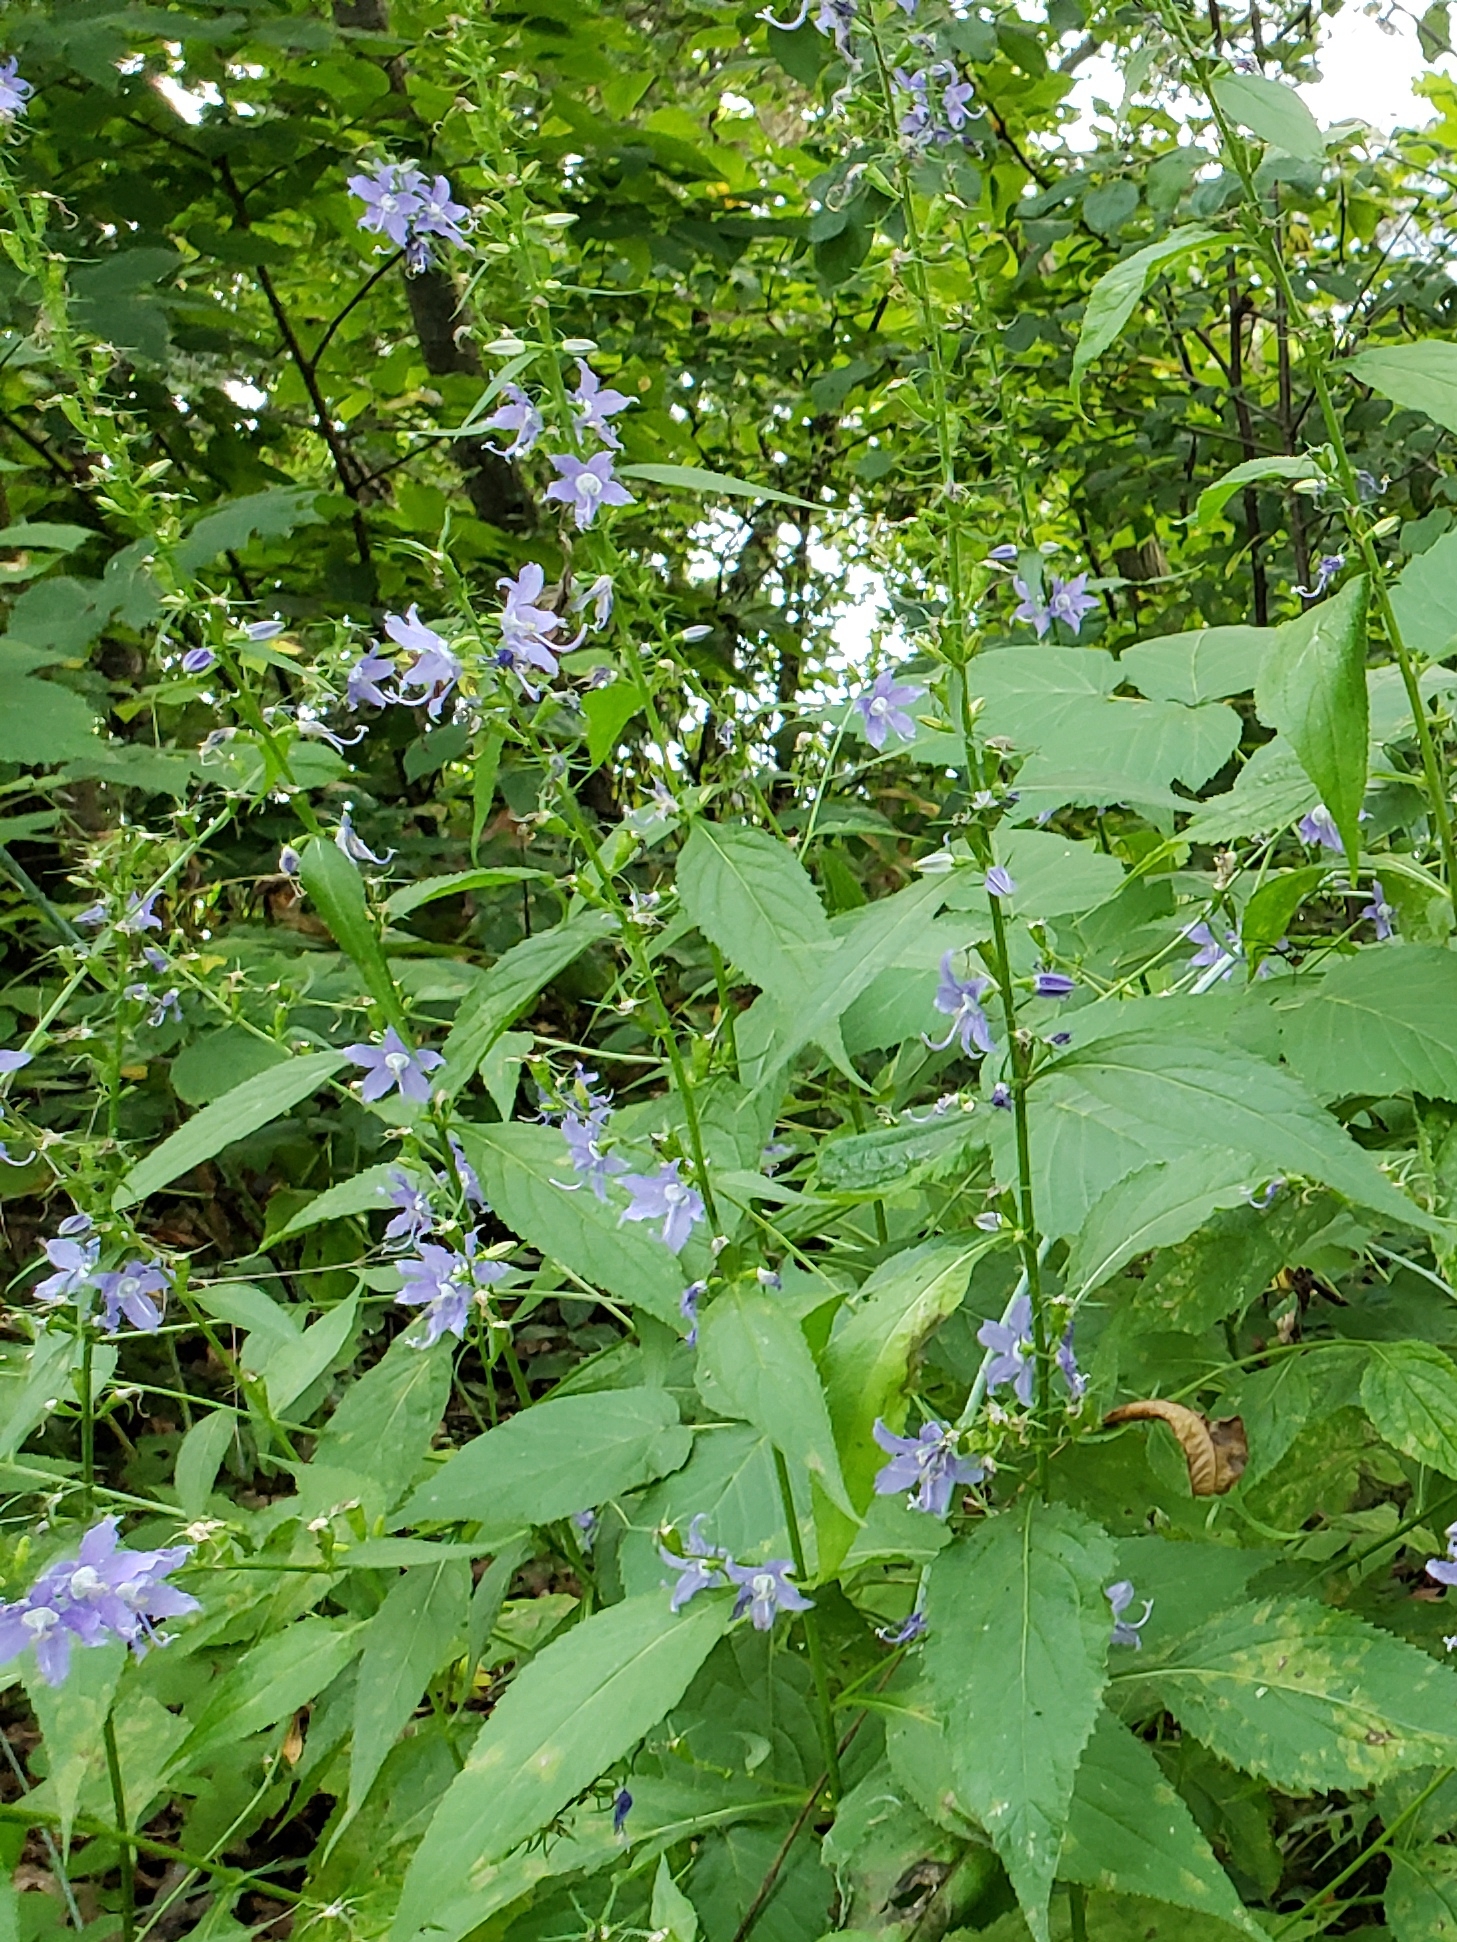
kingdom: Plantae
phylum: Tracheophyta
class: Magnoliopsida
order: Asterales
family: Campanulaceae
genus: Campanulastrum
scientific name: Campanulastrum americanum
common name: American bellflower
